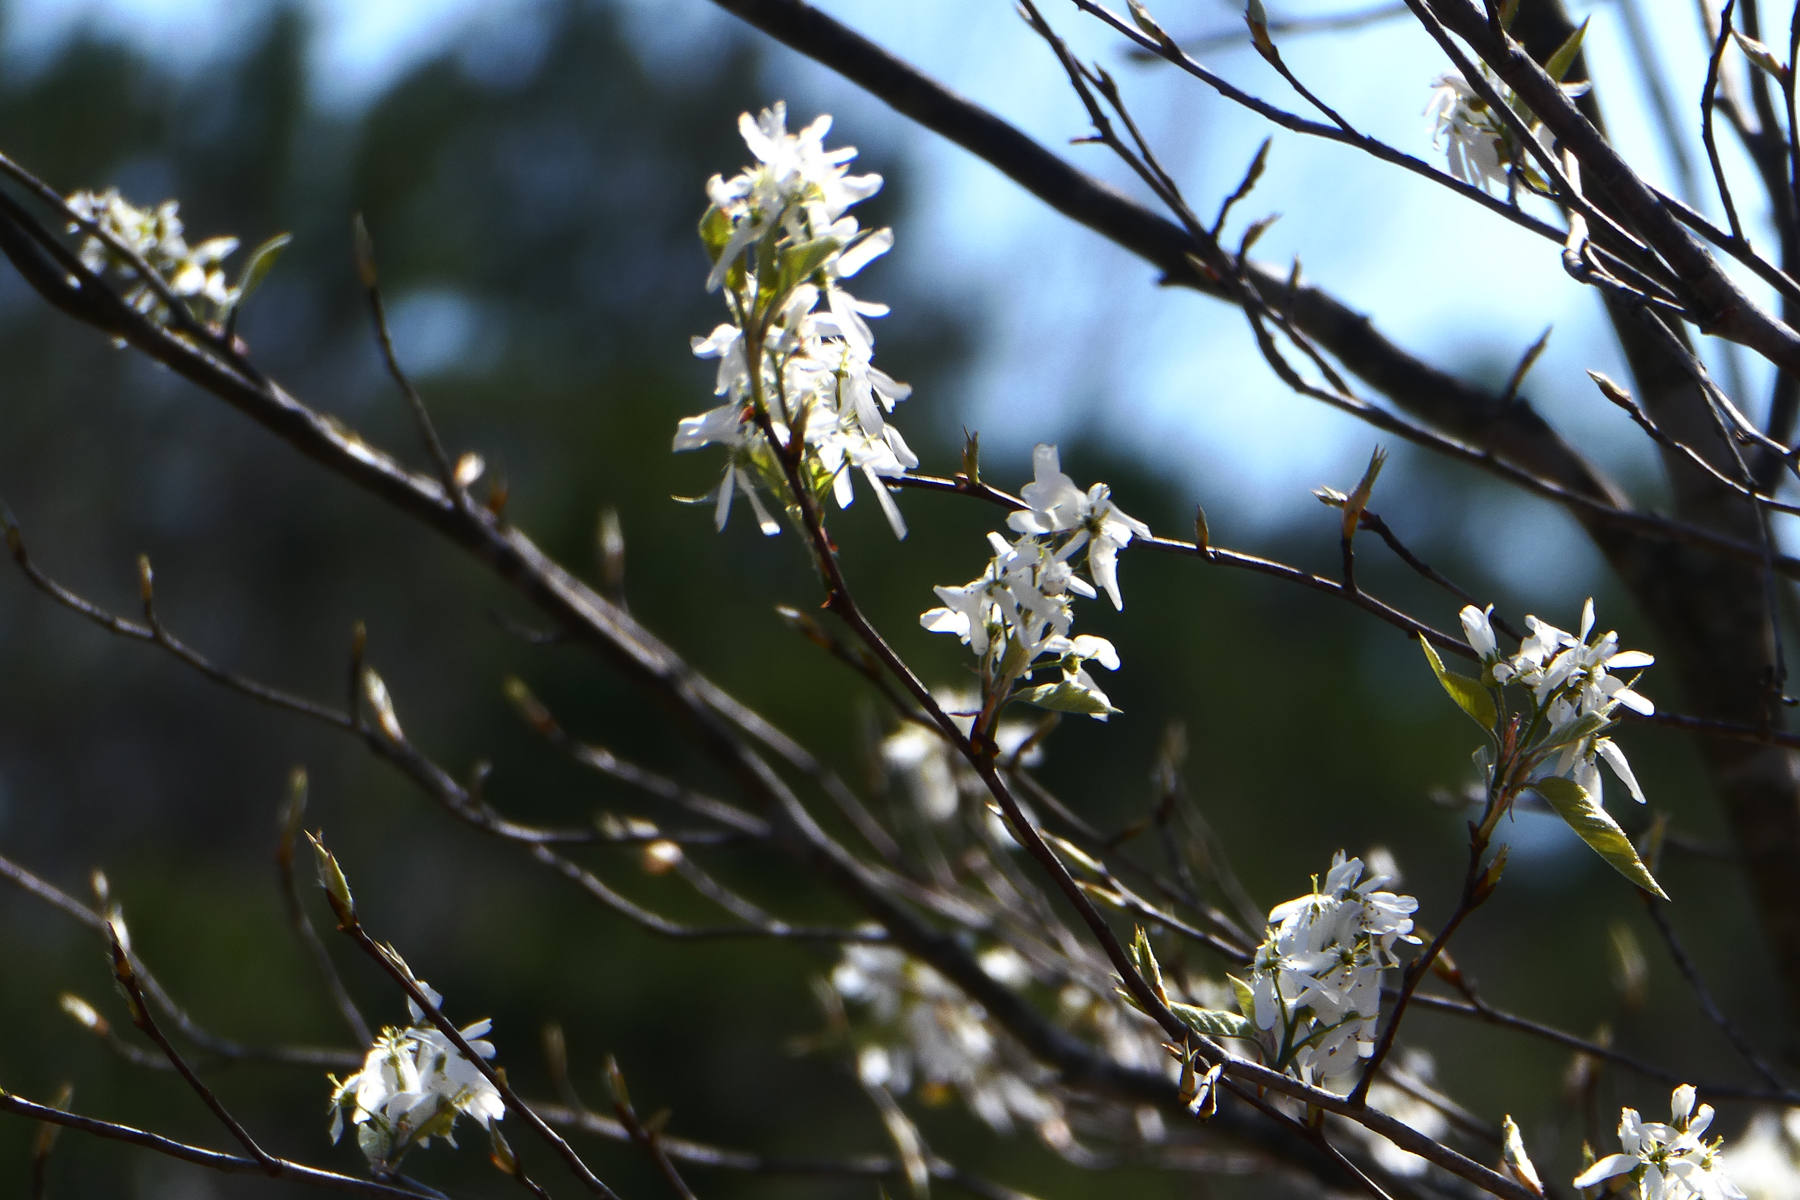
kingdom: Plantae
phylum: Tracheophyta
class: Magnoliopsida
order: Rosales
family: Rosaceae
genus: Amelanchier
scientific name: Amelanchier arborea
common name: Downy serviceberry
